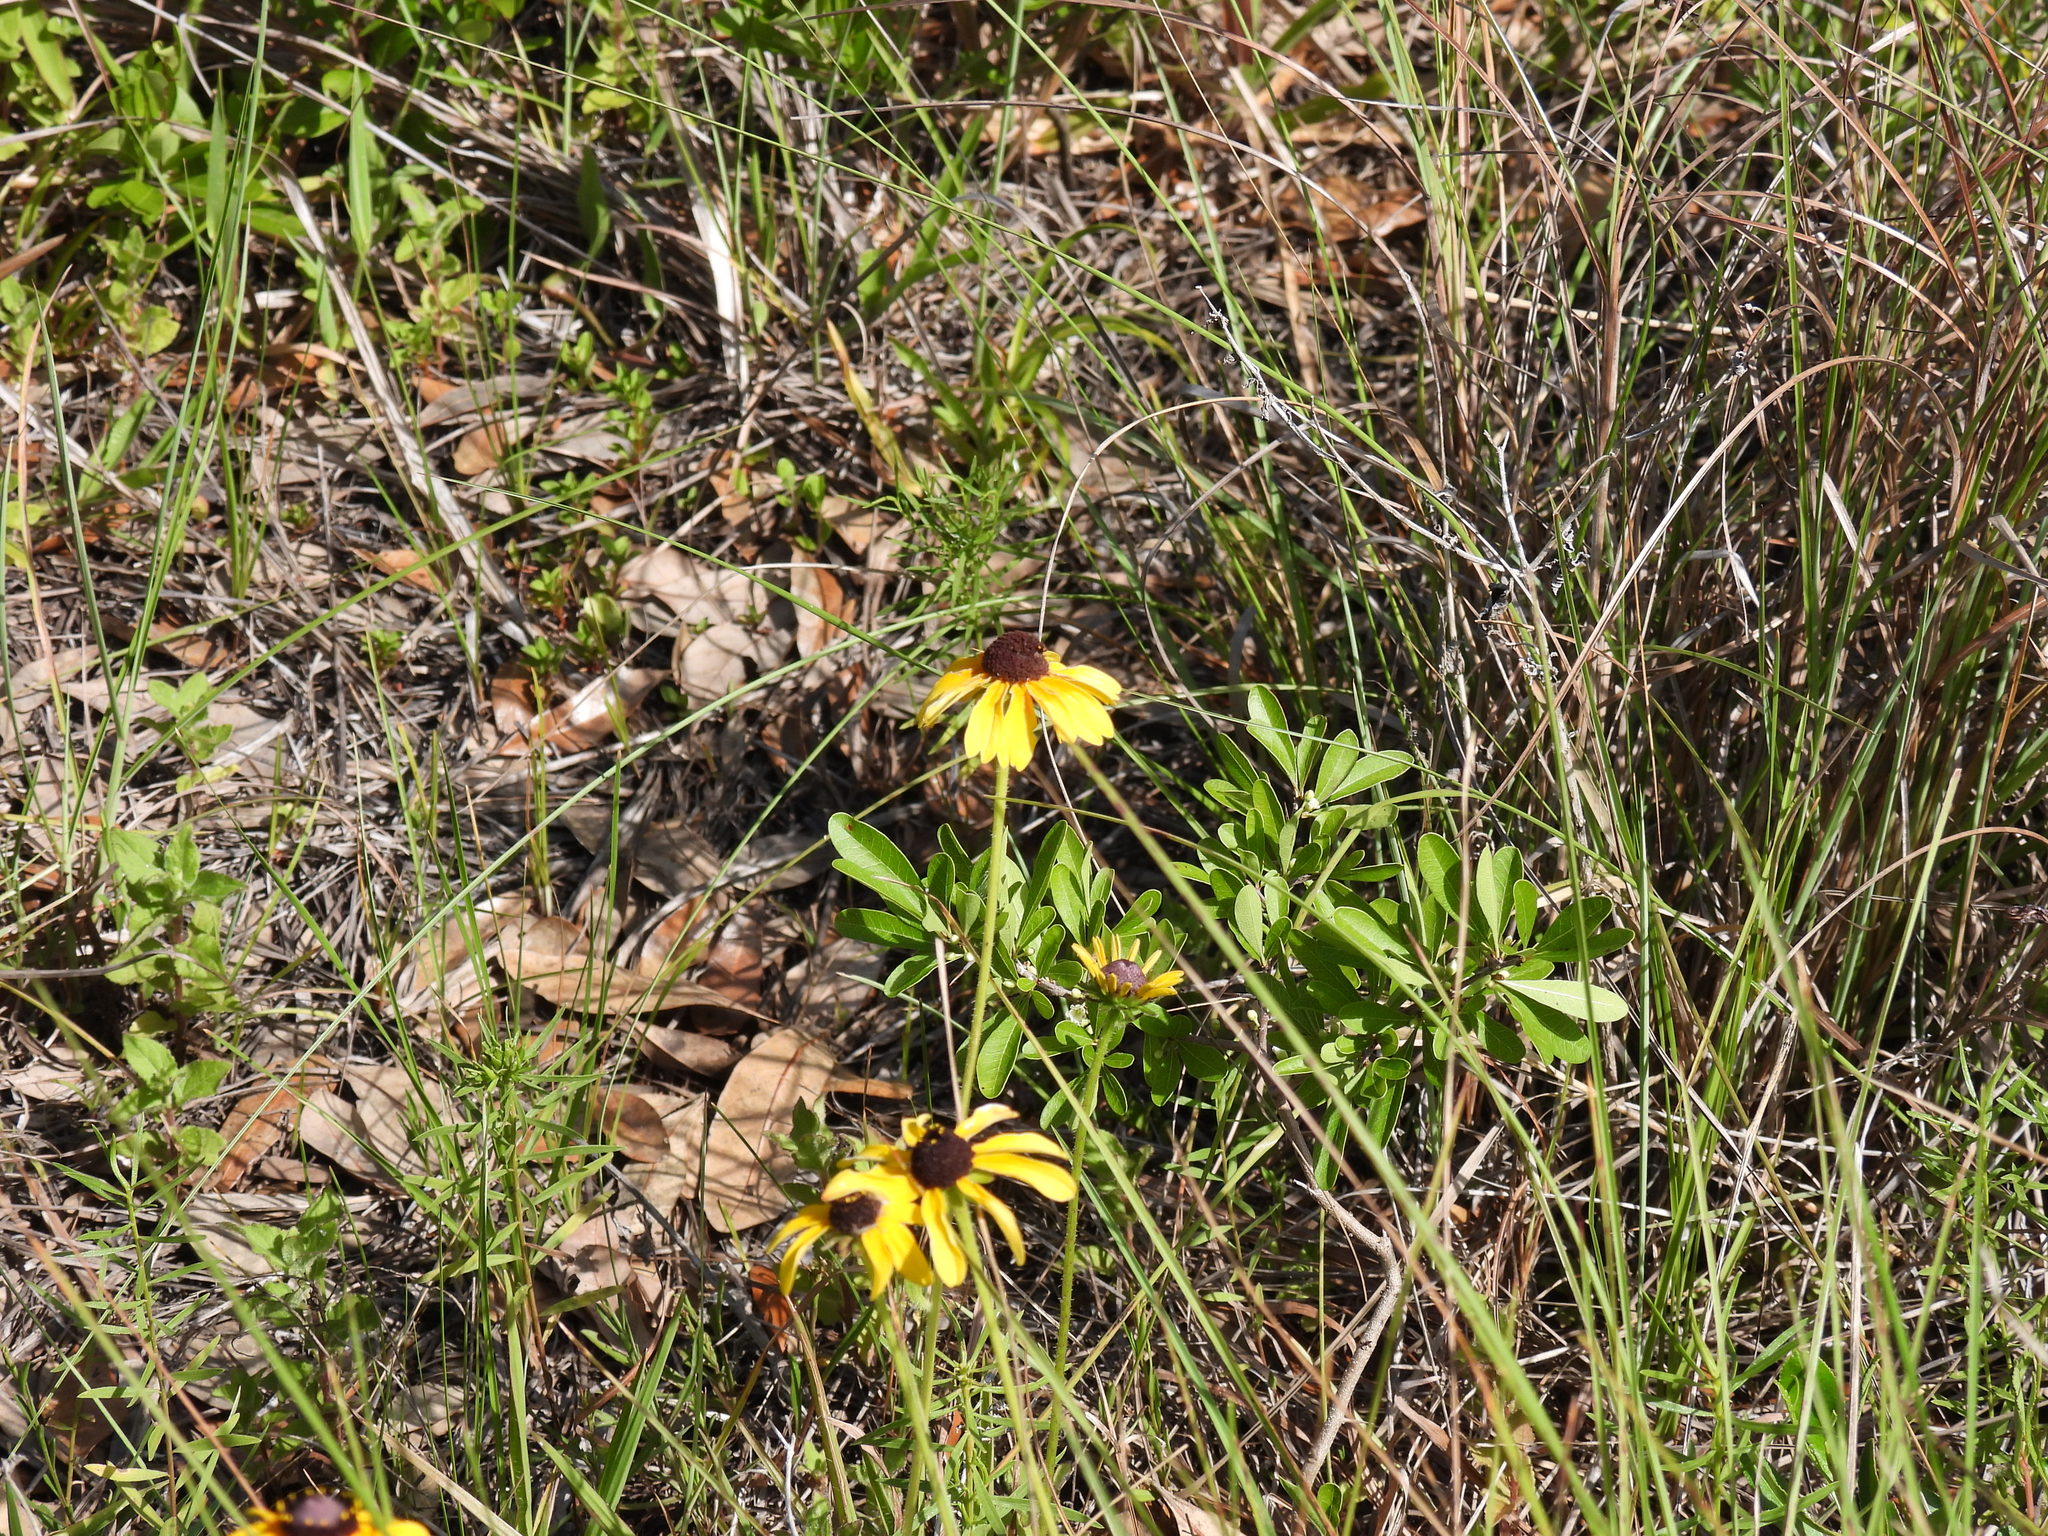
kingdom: Plantae
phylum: Tracheophyta
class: Magnoliopsida
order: Asterales
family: Asteraceae
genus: Rudbeckia
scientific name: Rudbeckia hirta
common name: Black-eyed-susan
